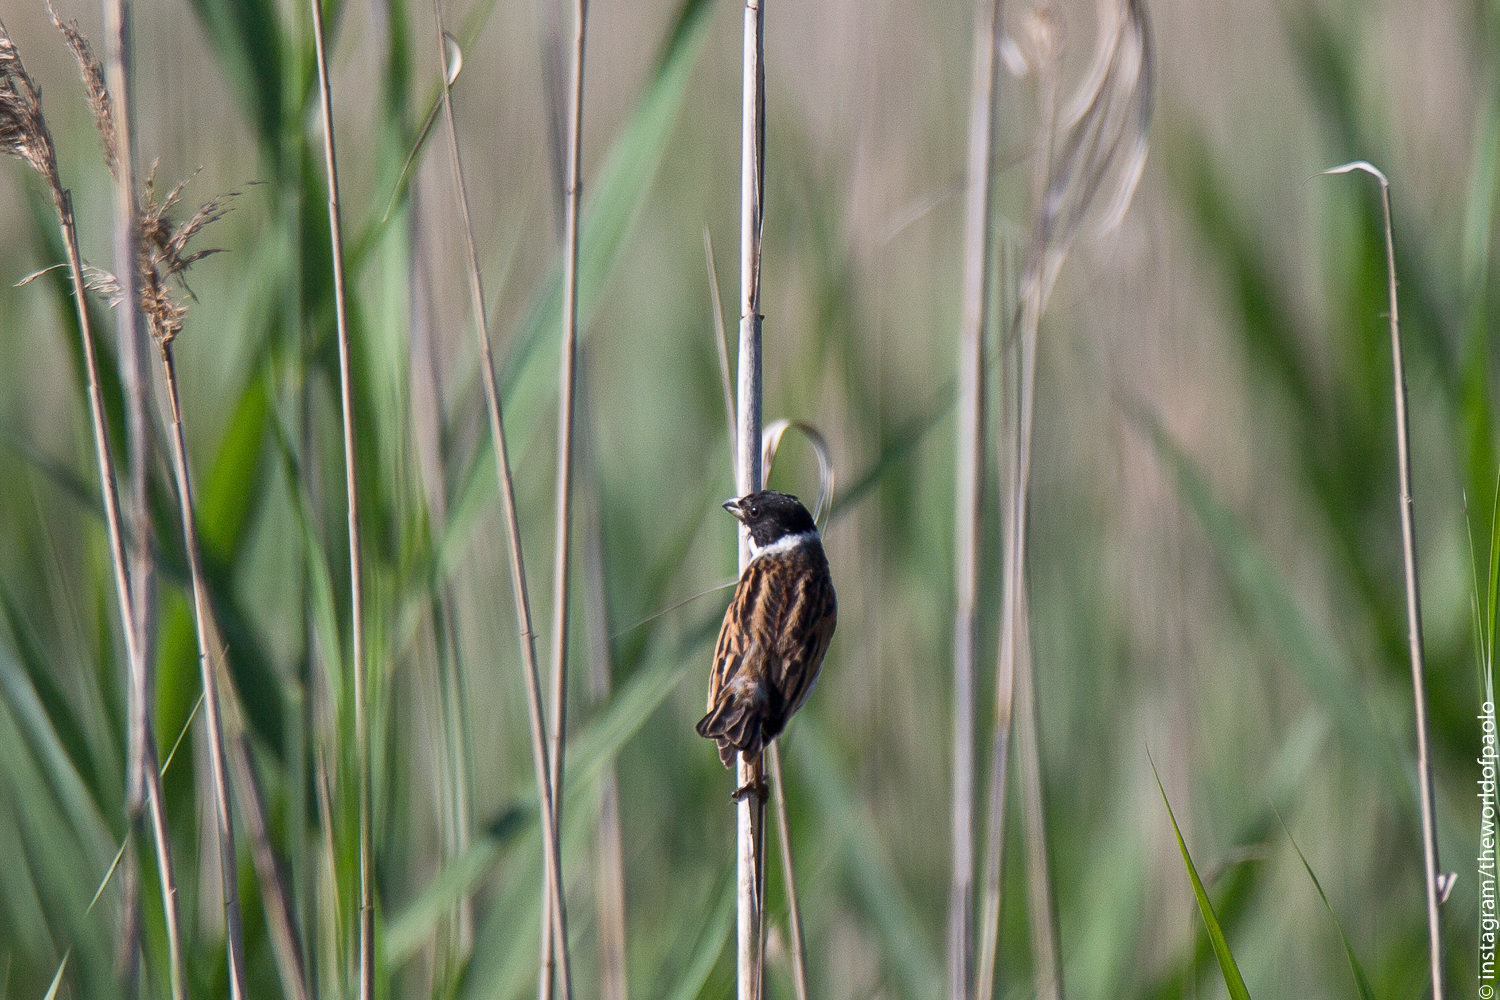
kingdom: Animalia
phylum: Chordata
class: Aves
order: Passeriformes
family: Emberizidae
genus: Emberiza
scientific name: Emberiza schoeniclus
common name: Reed bunting
